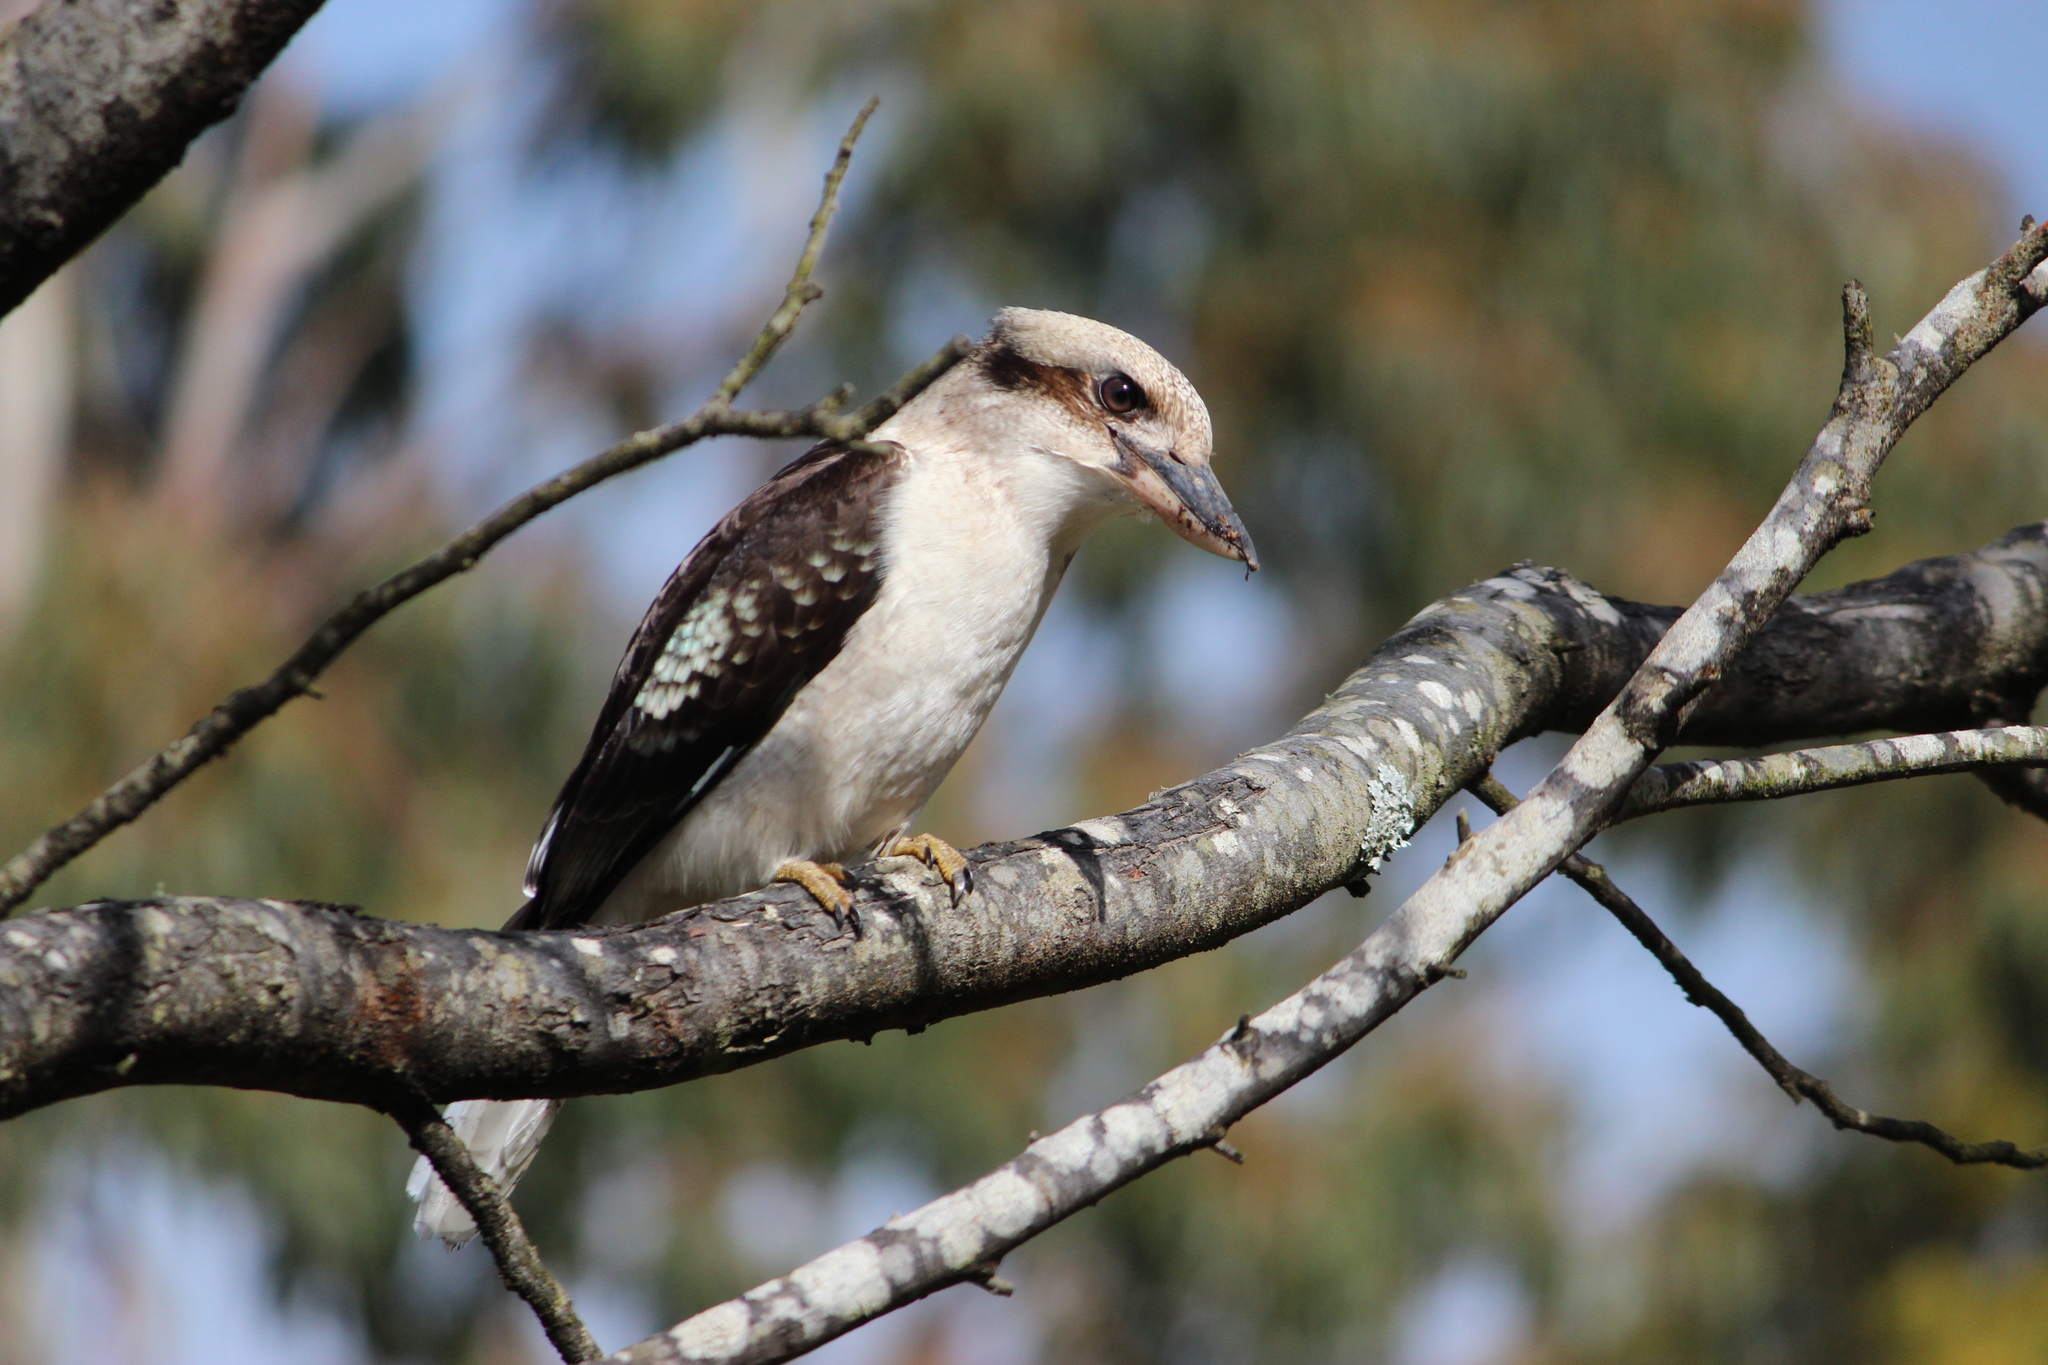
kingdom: Animalia
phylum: Chordata
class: Aves
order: Coraciiformes
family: Alcedinidae
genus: Dacelo
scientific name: Dacelo novaeguineae
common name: Laughing kookaburra
